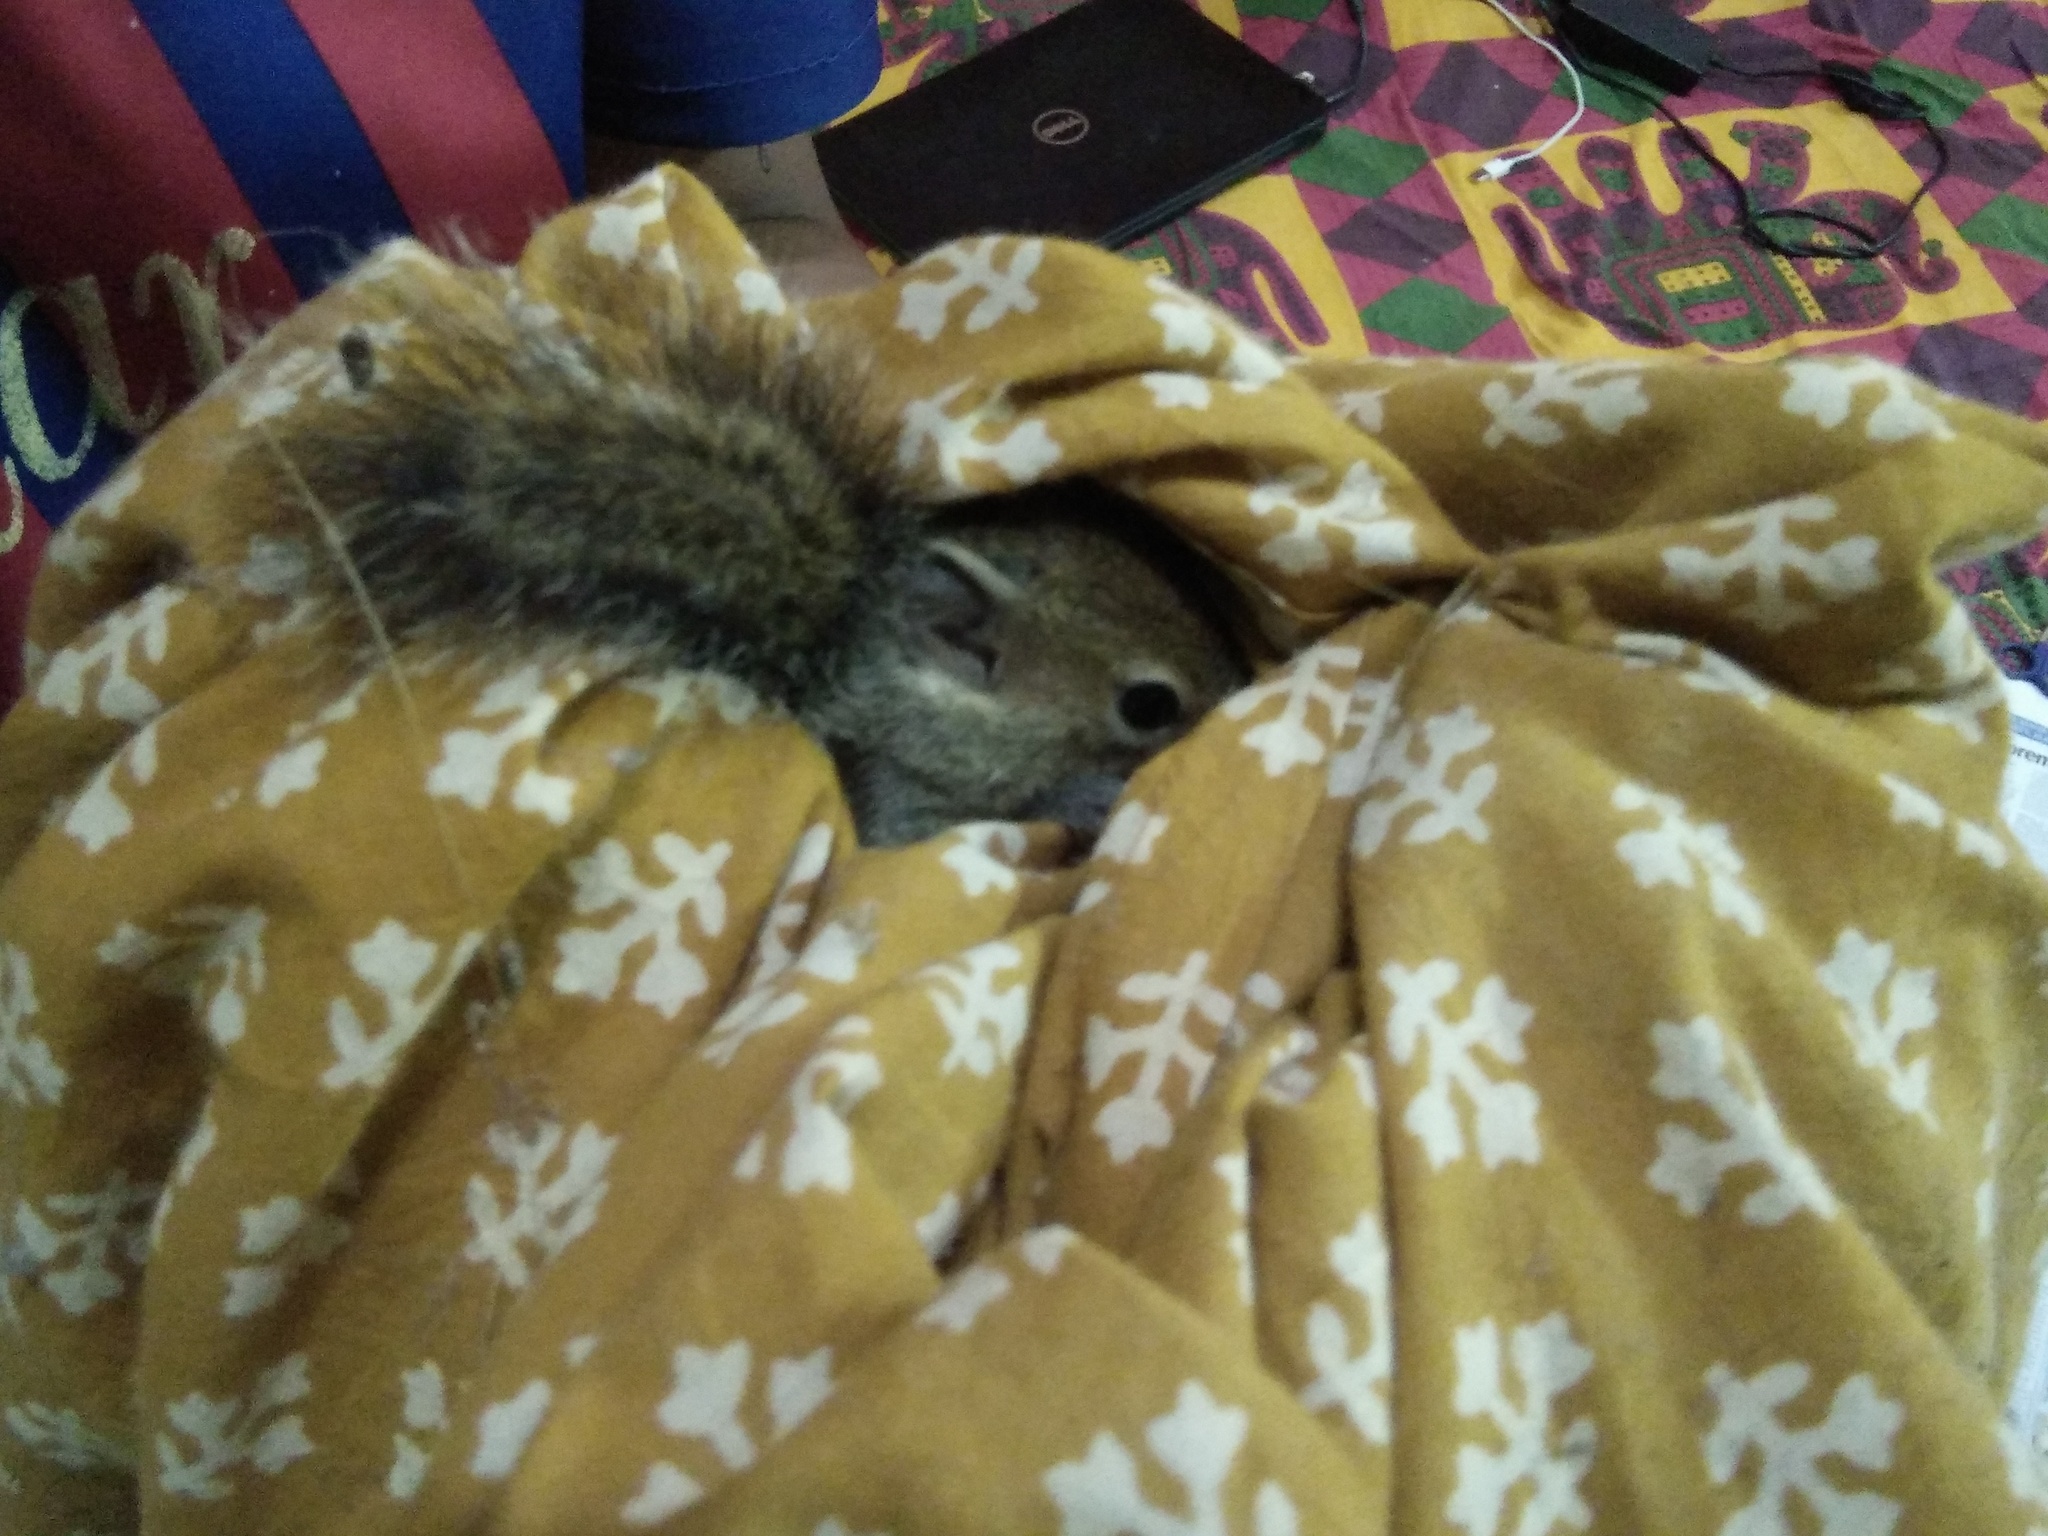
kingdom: Animalia
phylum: Chordata
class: Mammalia
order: Rodentia
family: Sciuridae
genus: Funambulus
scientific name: Funambulus palmarum
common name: Indian palm squirrel
